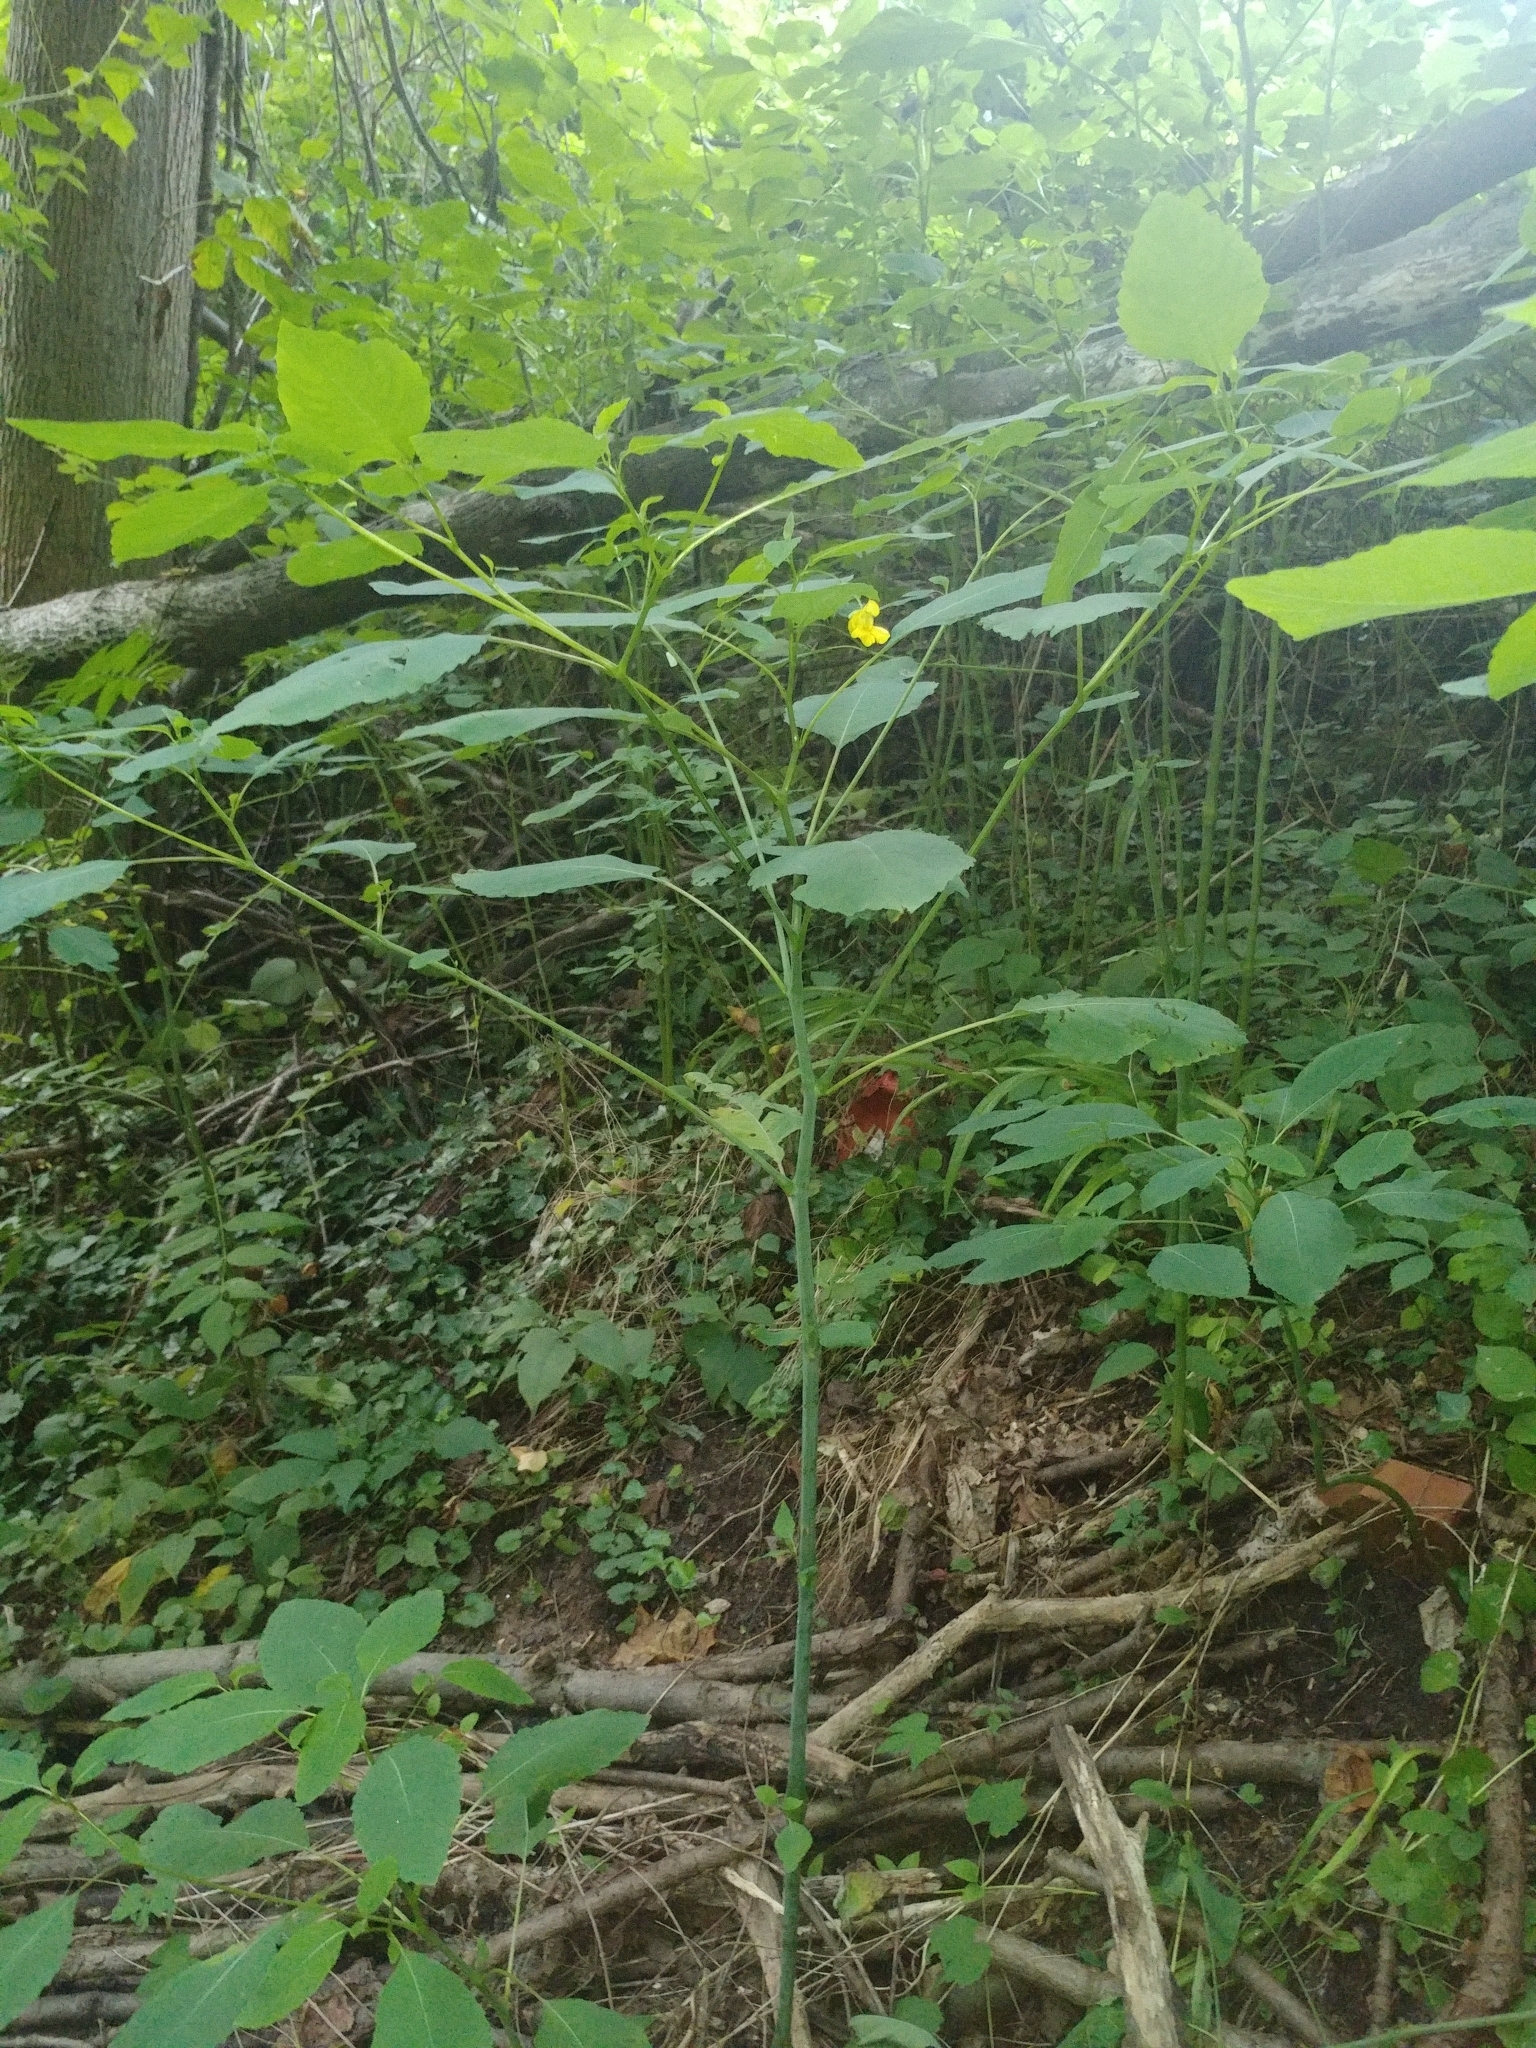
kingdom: Plantae
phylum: Tracheophyta
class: Magnoliopsida
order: Ericales
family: Balsaminaceae
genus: Impatiens
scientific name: Impatiens pallida
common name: Pale snapweed
